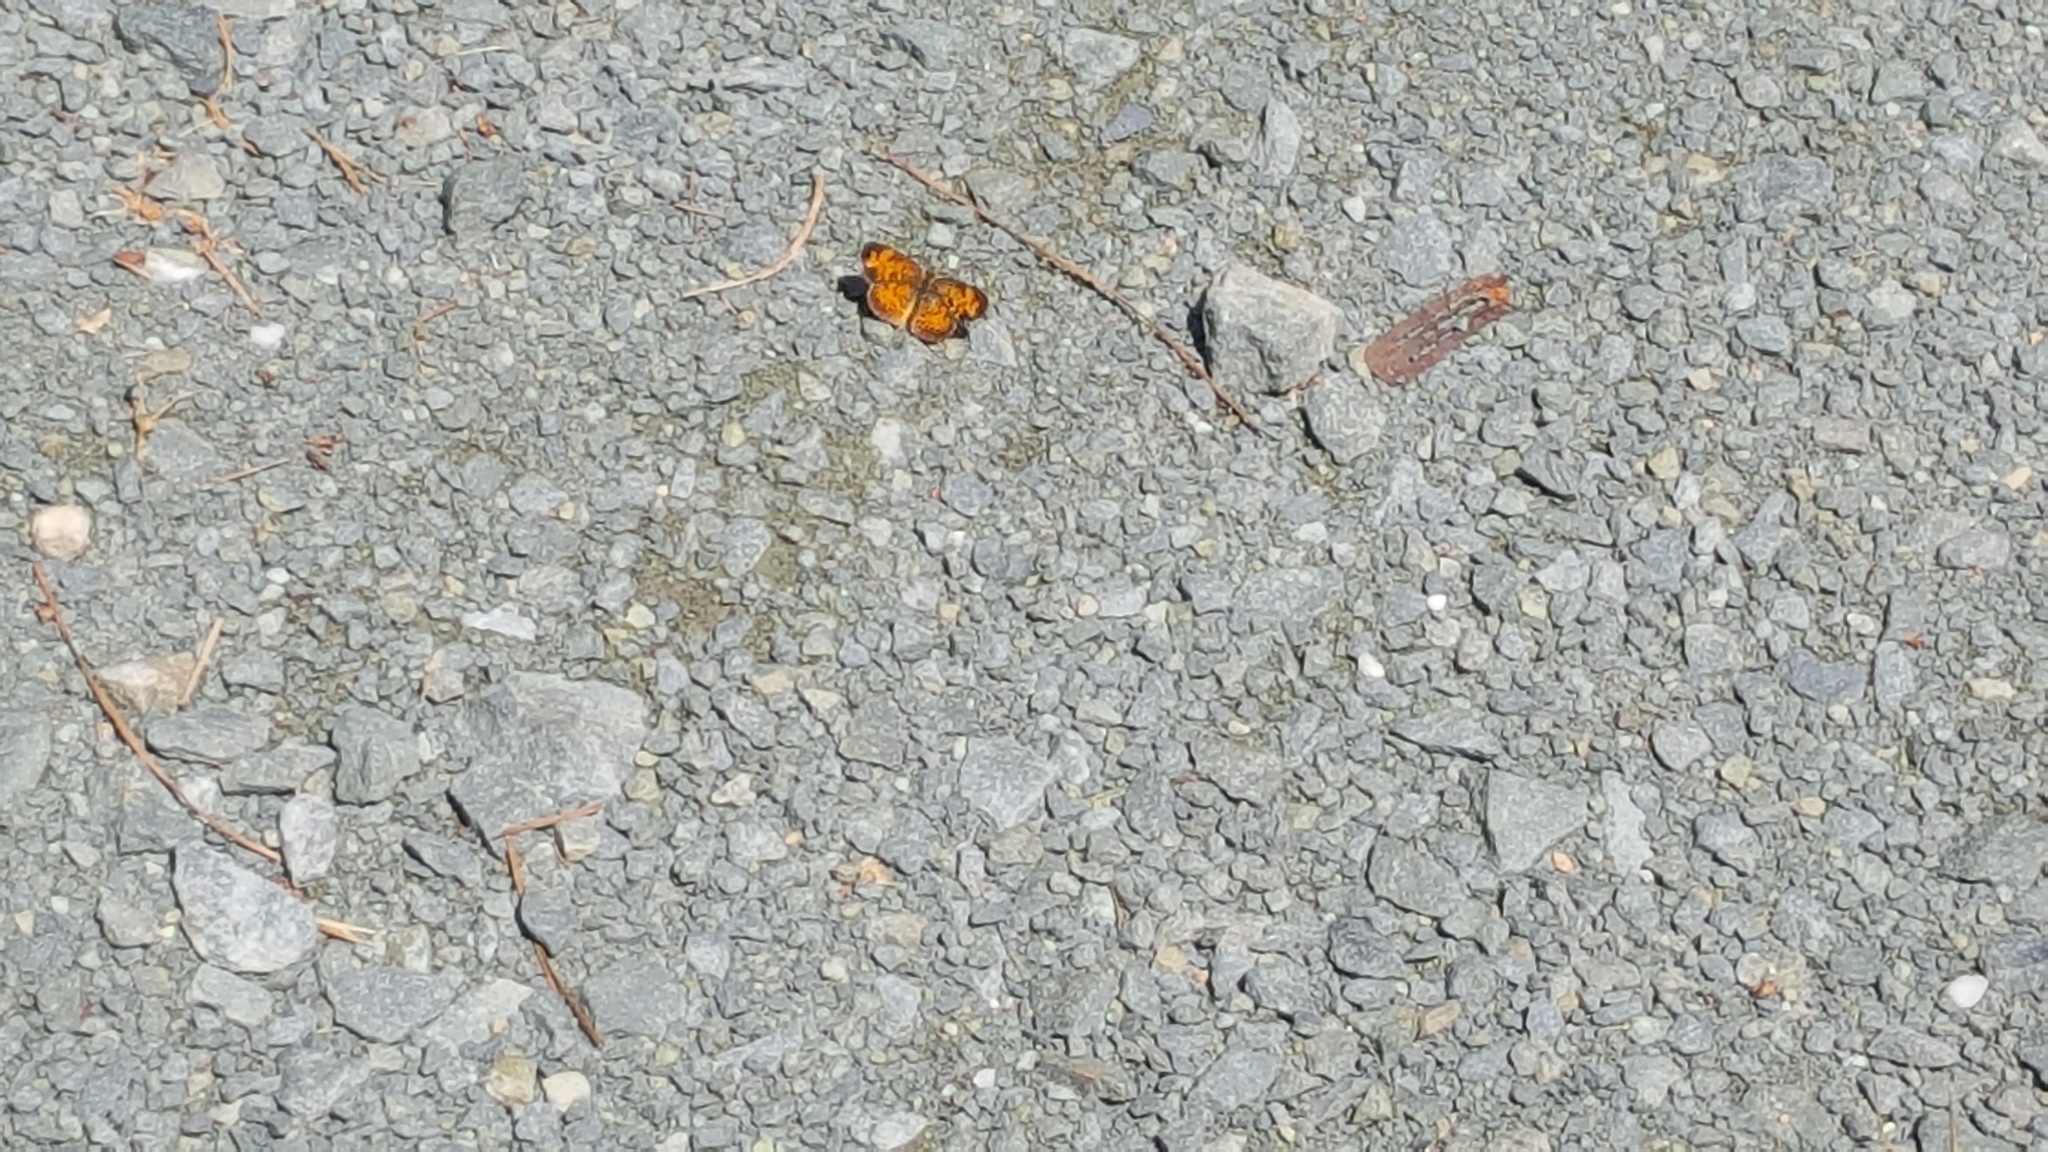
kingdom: Animalia
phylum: Arthropoda
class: Insecta
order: Lepidoptera
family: Nymphalidae
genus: Phyciodes
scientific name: Phyciodes tharos
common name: Pearl crescent
